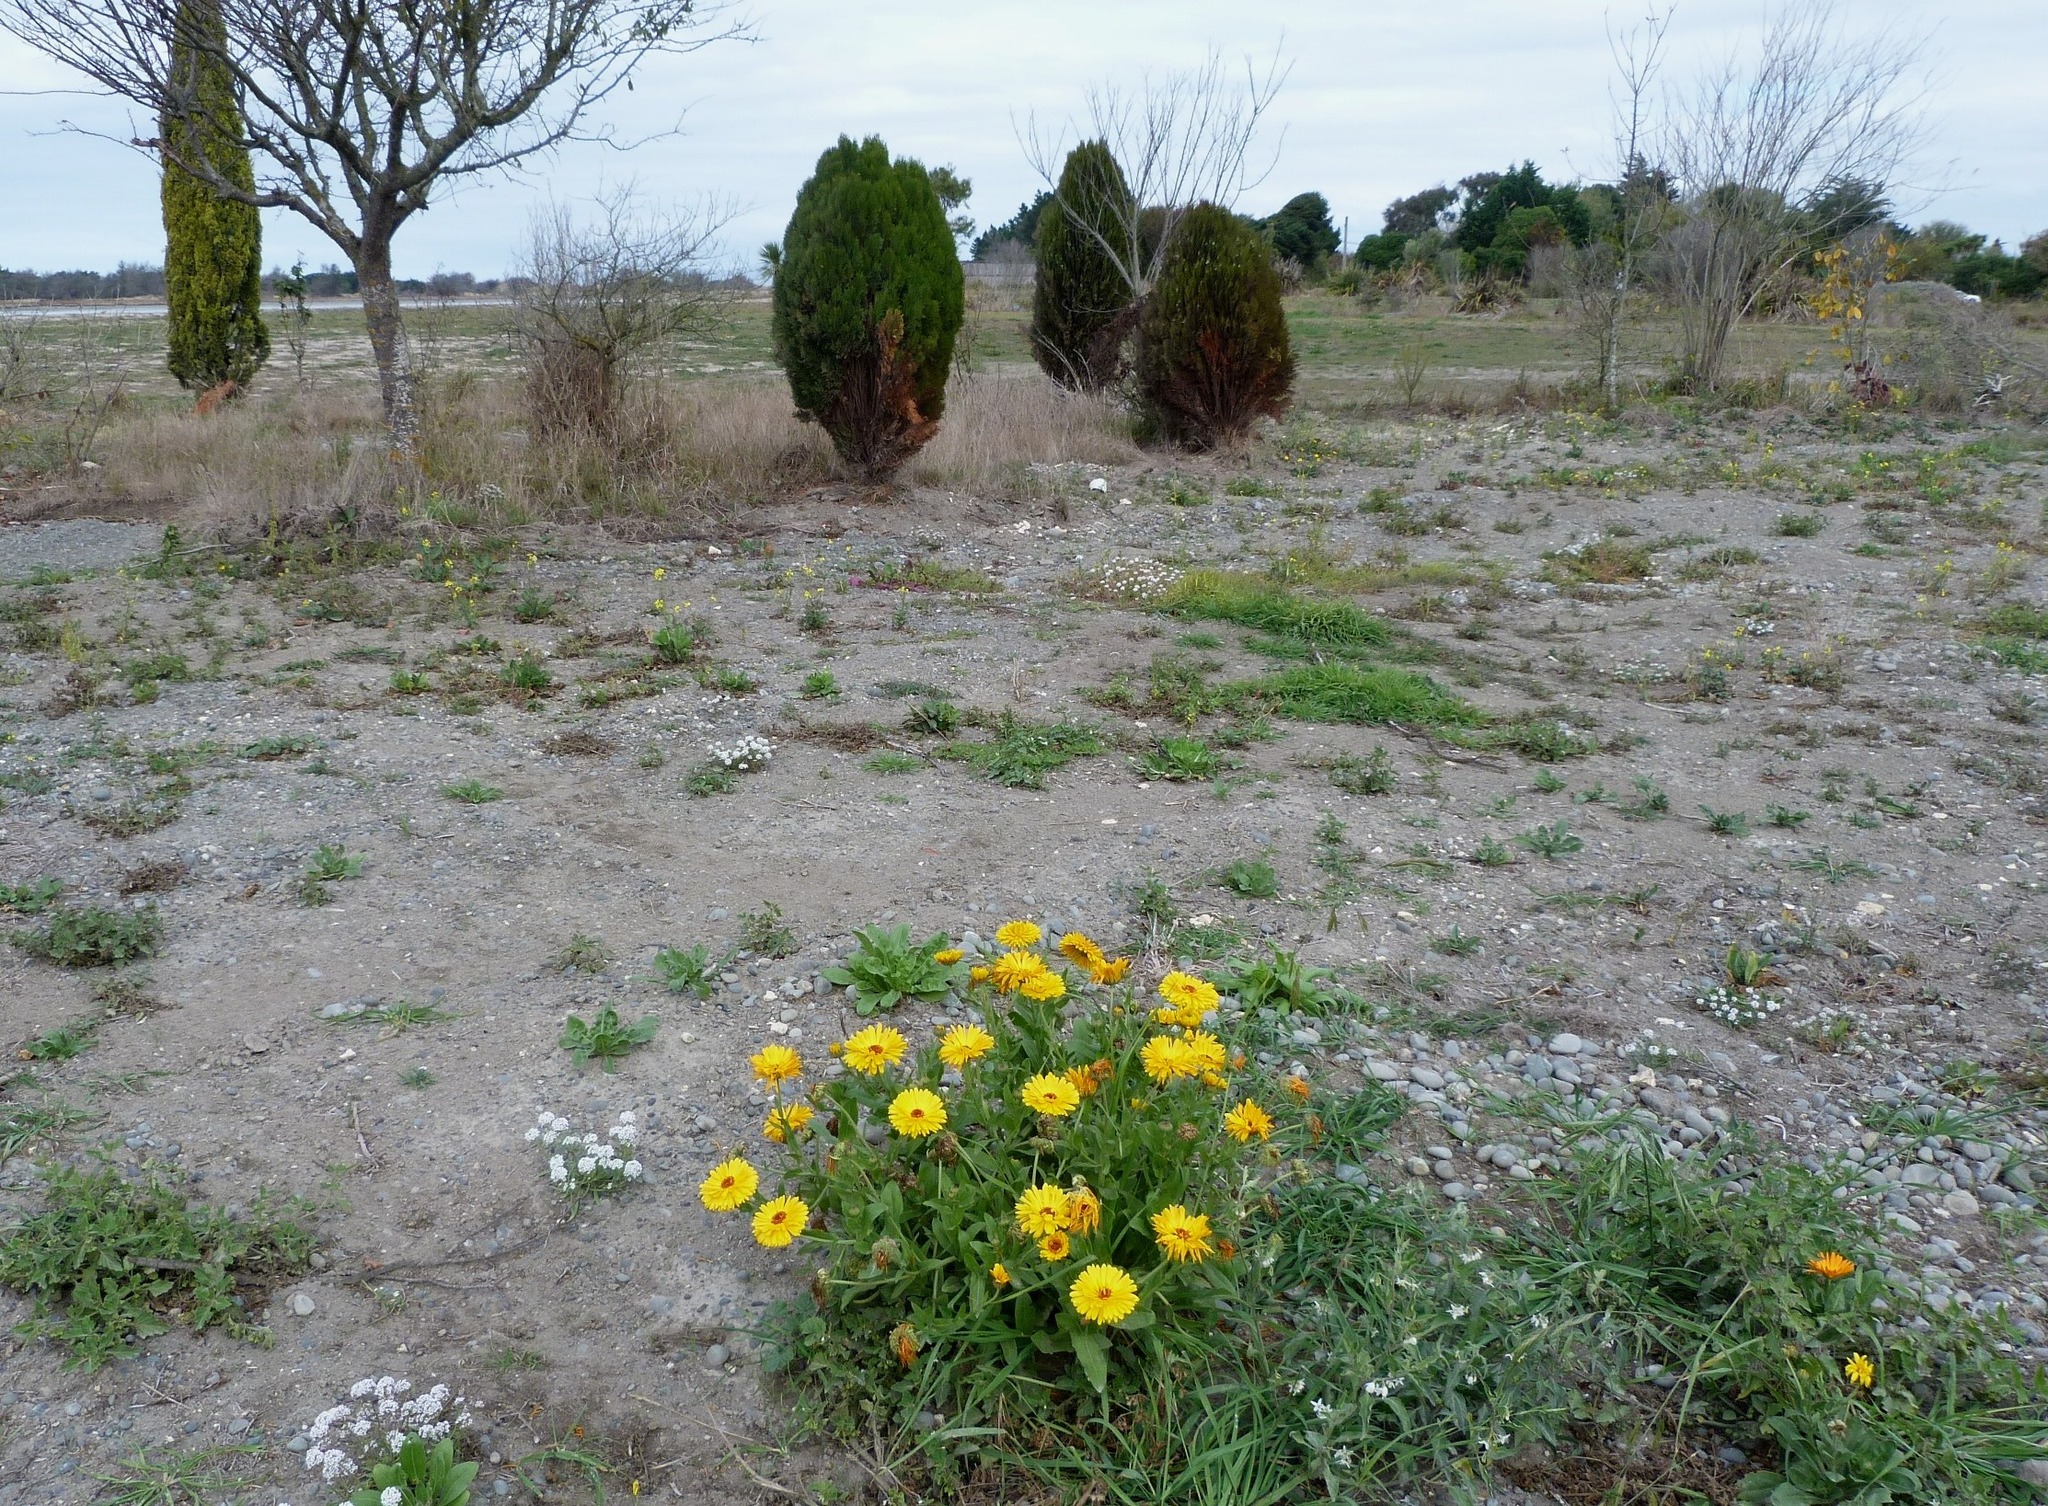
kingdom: Plantae
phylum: Tracheophyta
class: Magnoliopsida
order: Asterales
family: Asteraceae
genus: Calendula
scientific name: Calendula officinalis
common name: Pot marigold
